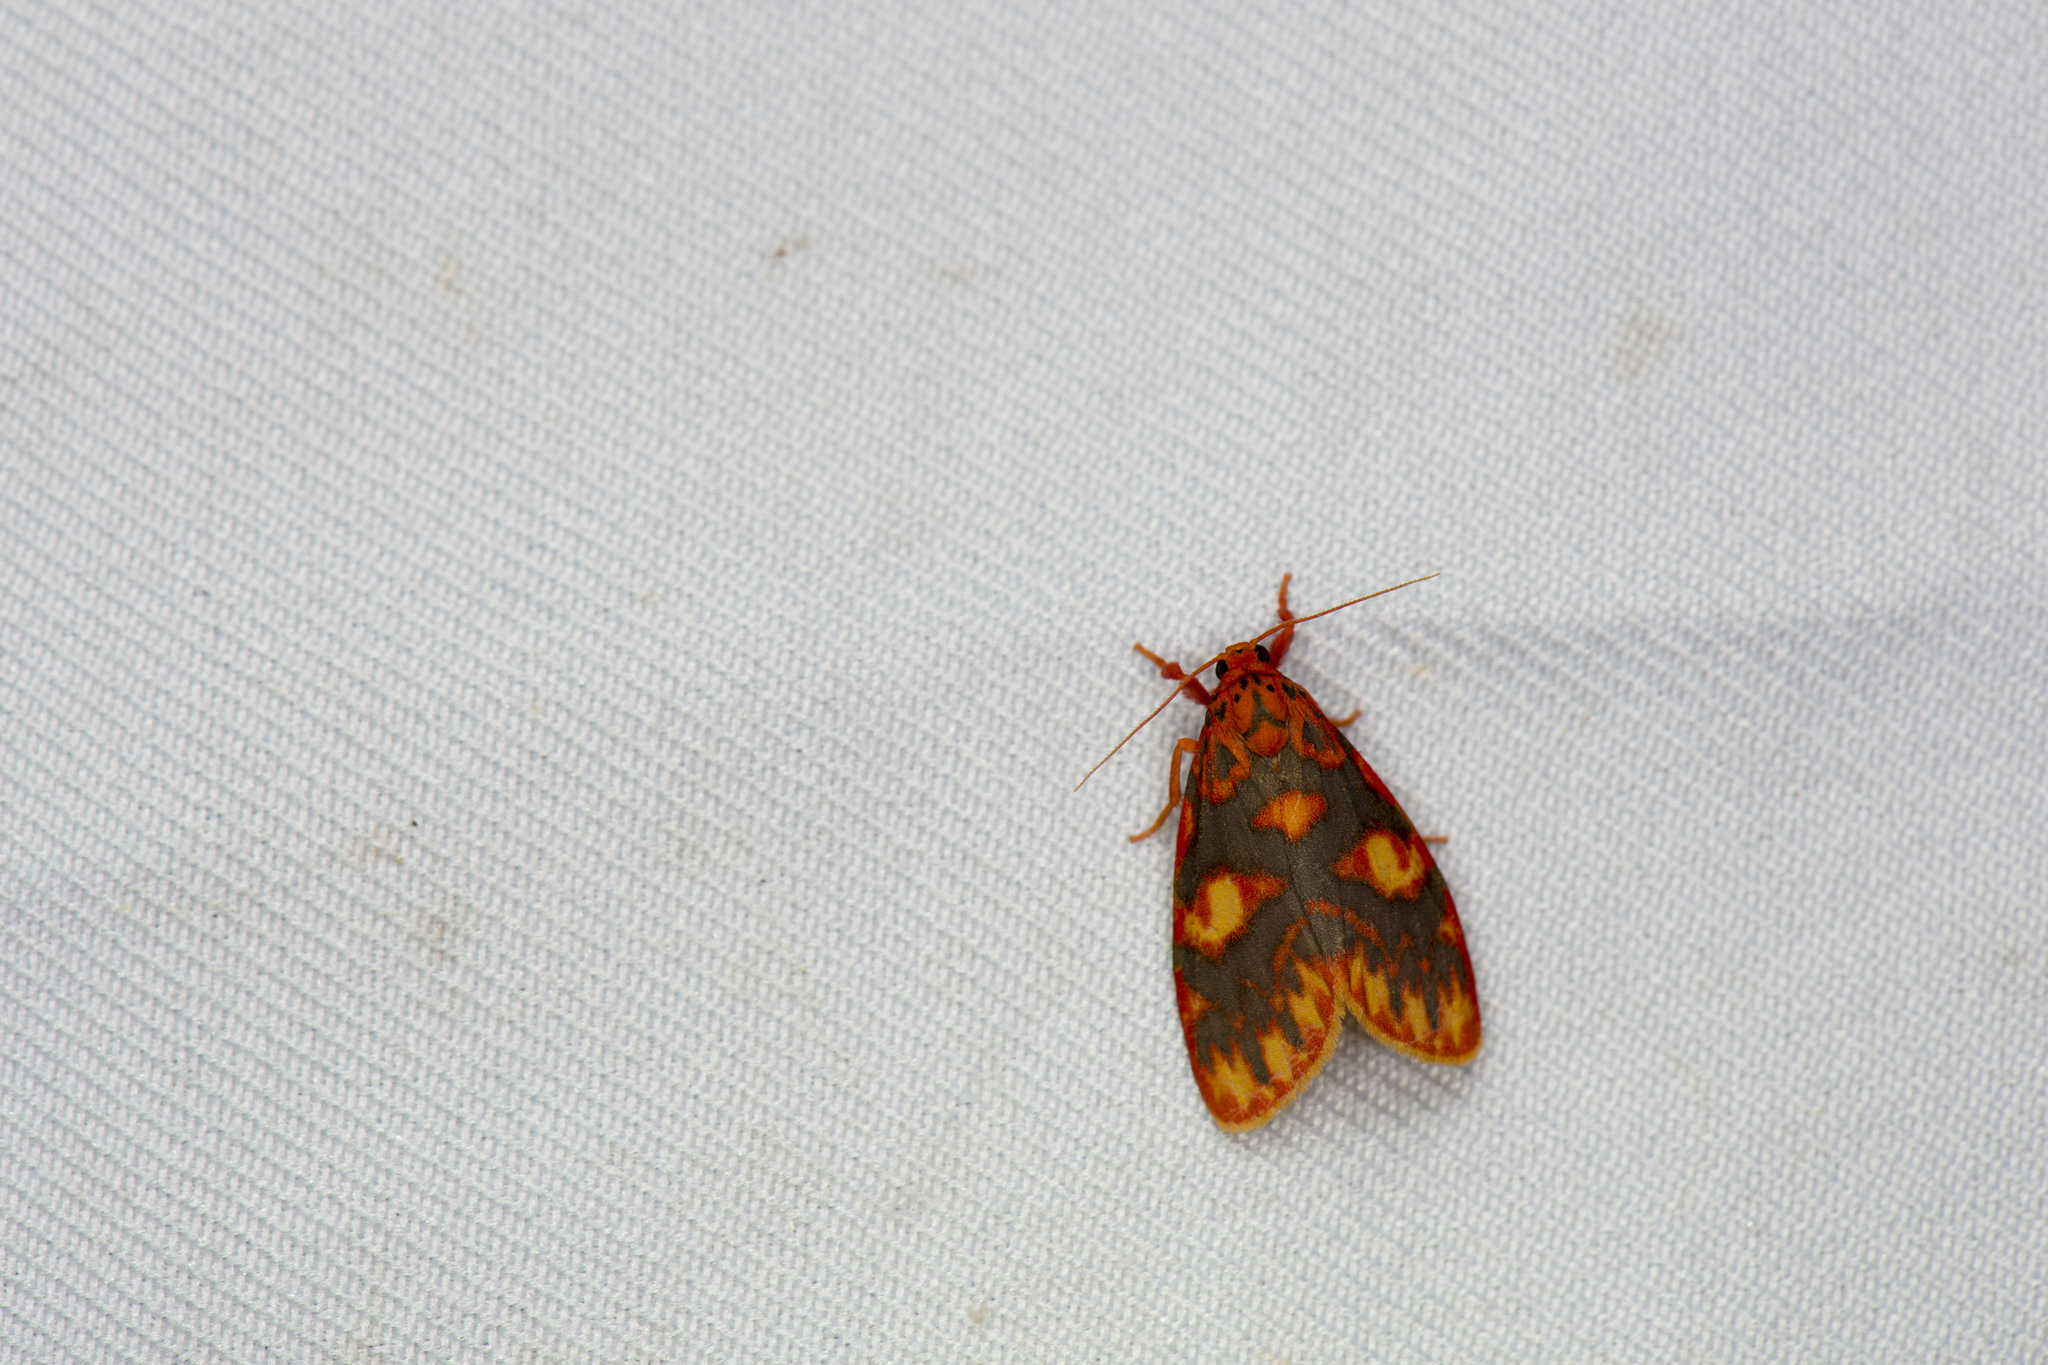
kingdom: Animalia
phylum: Arthropoda
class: Insecta
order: Lepidoptera
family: Erebidae
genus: Floridasura
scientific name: Floridasura tricolor
